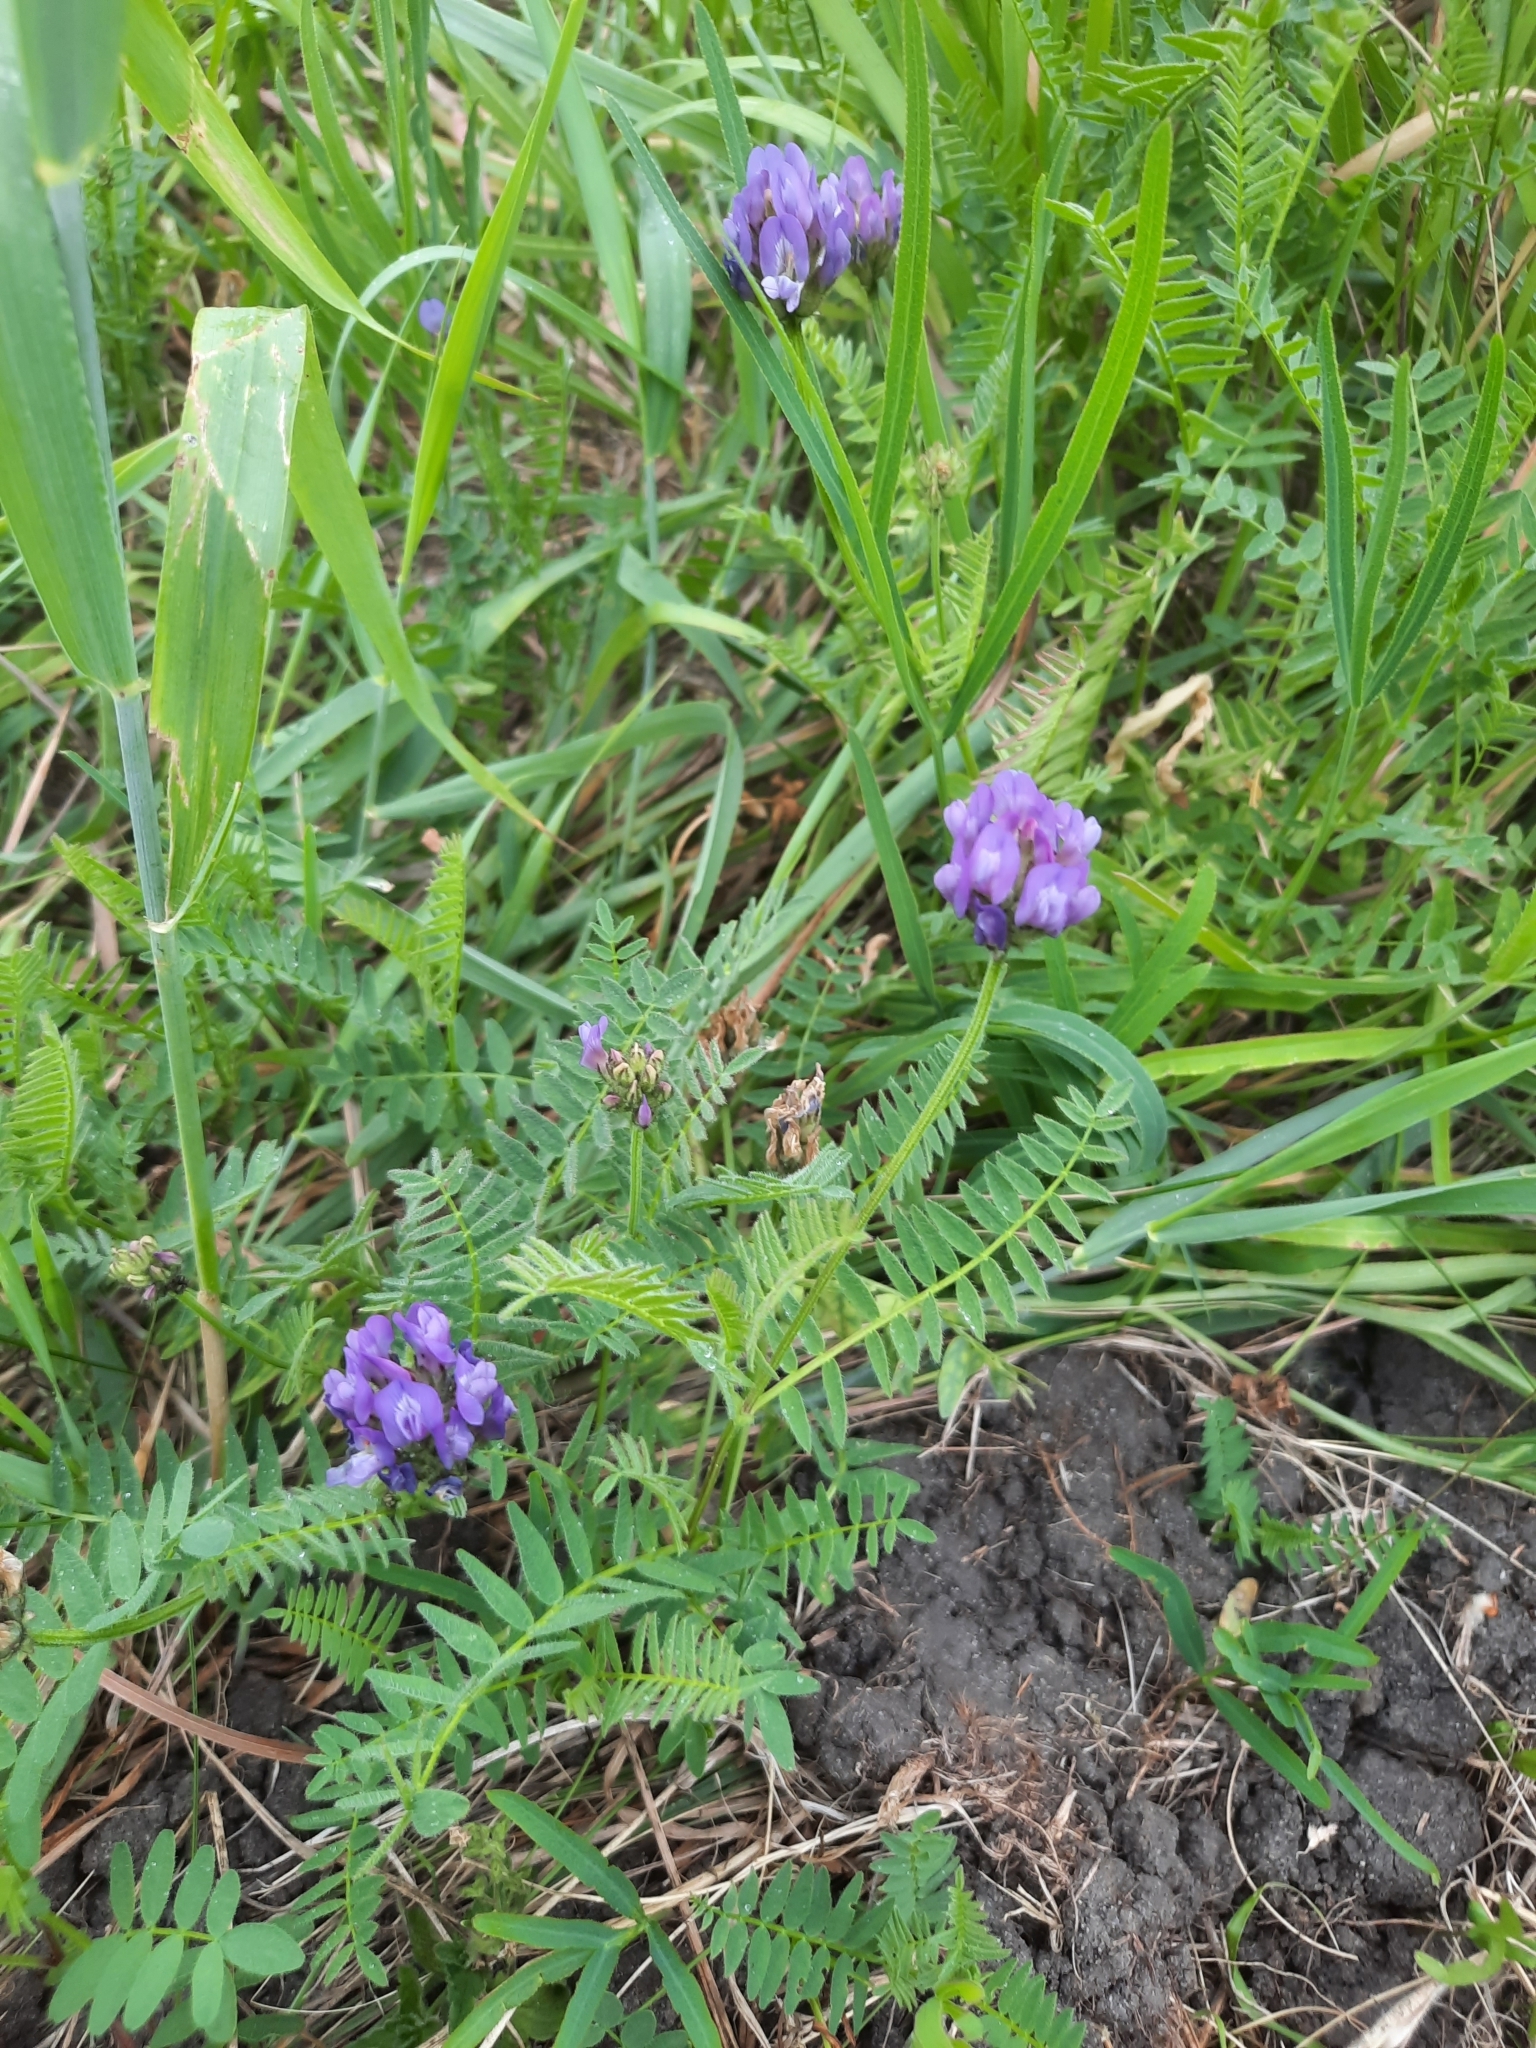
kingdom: Plantae
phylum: Tracheophyta
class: Magnoliopsida
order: Fabales
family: Fabaceae
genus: Astragalus
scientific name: Astragalus danicus
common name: Purple milk-vetch
